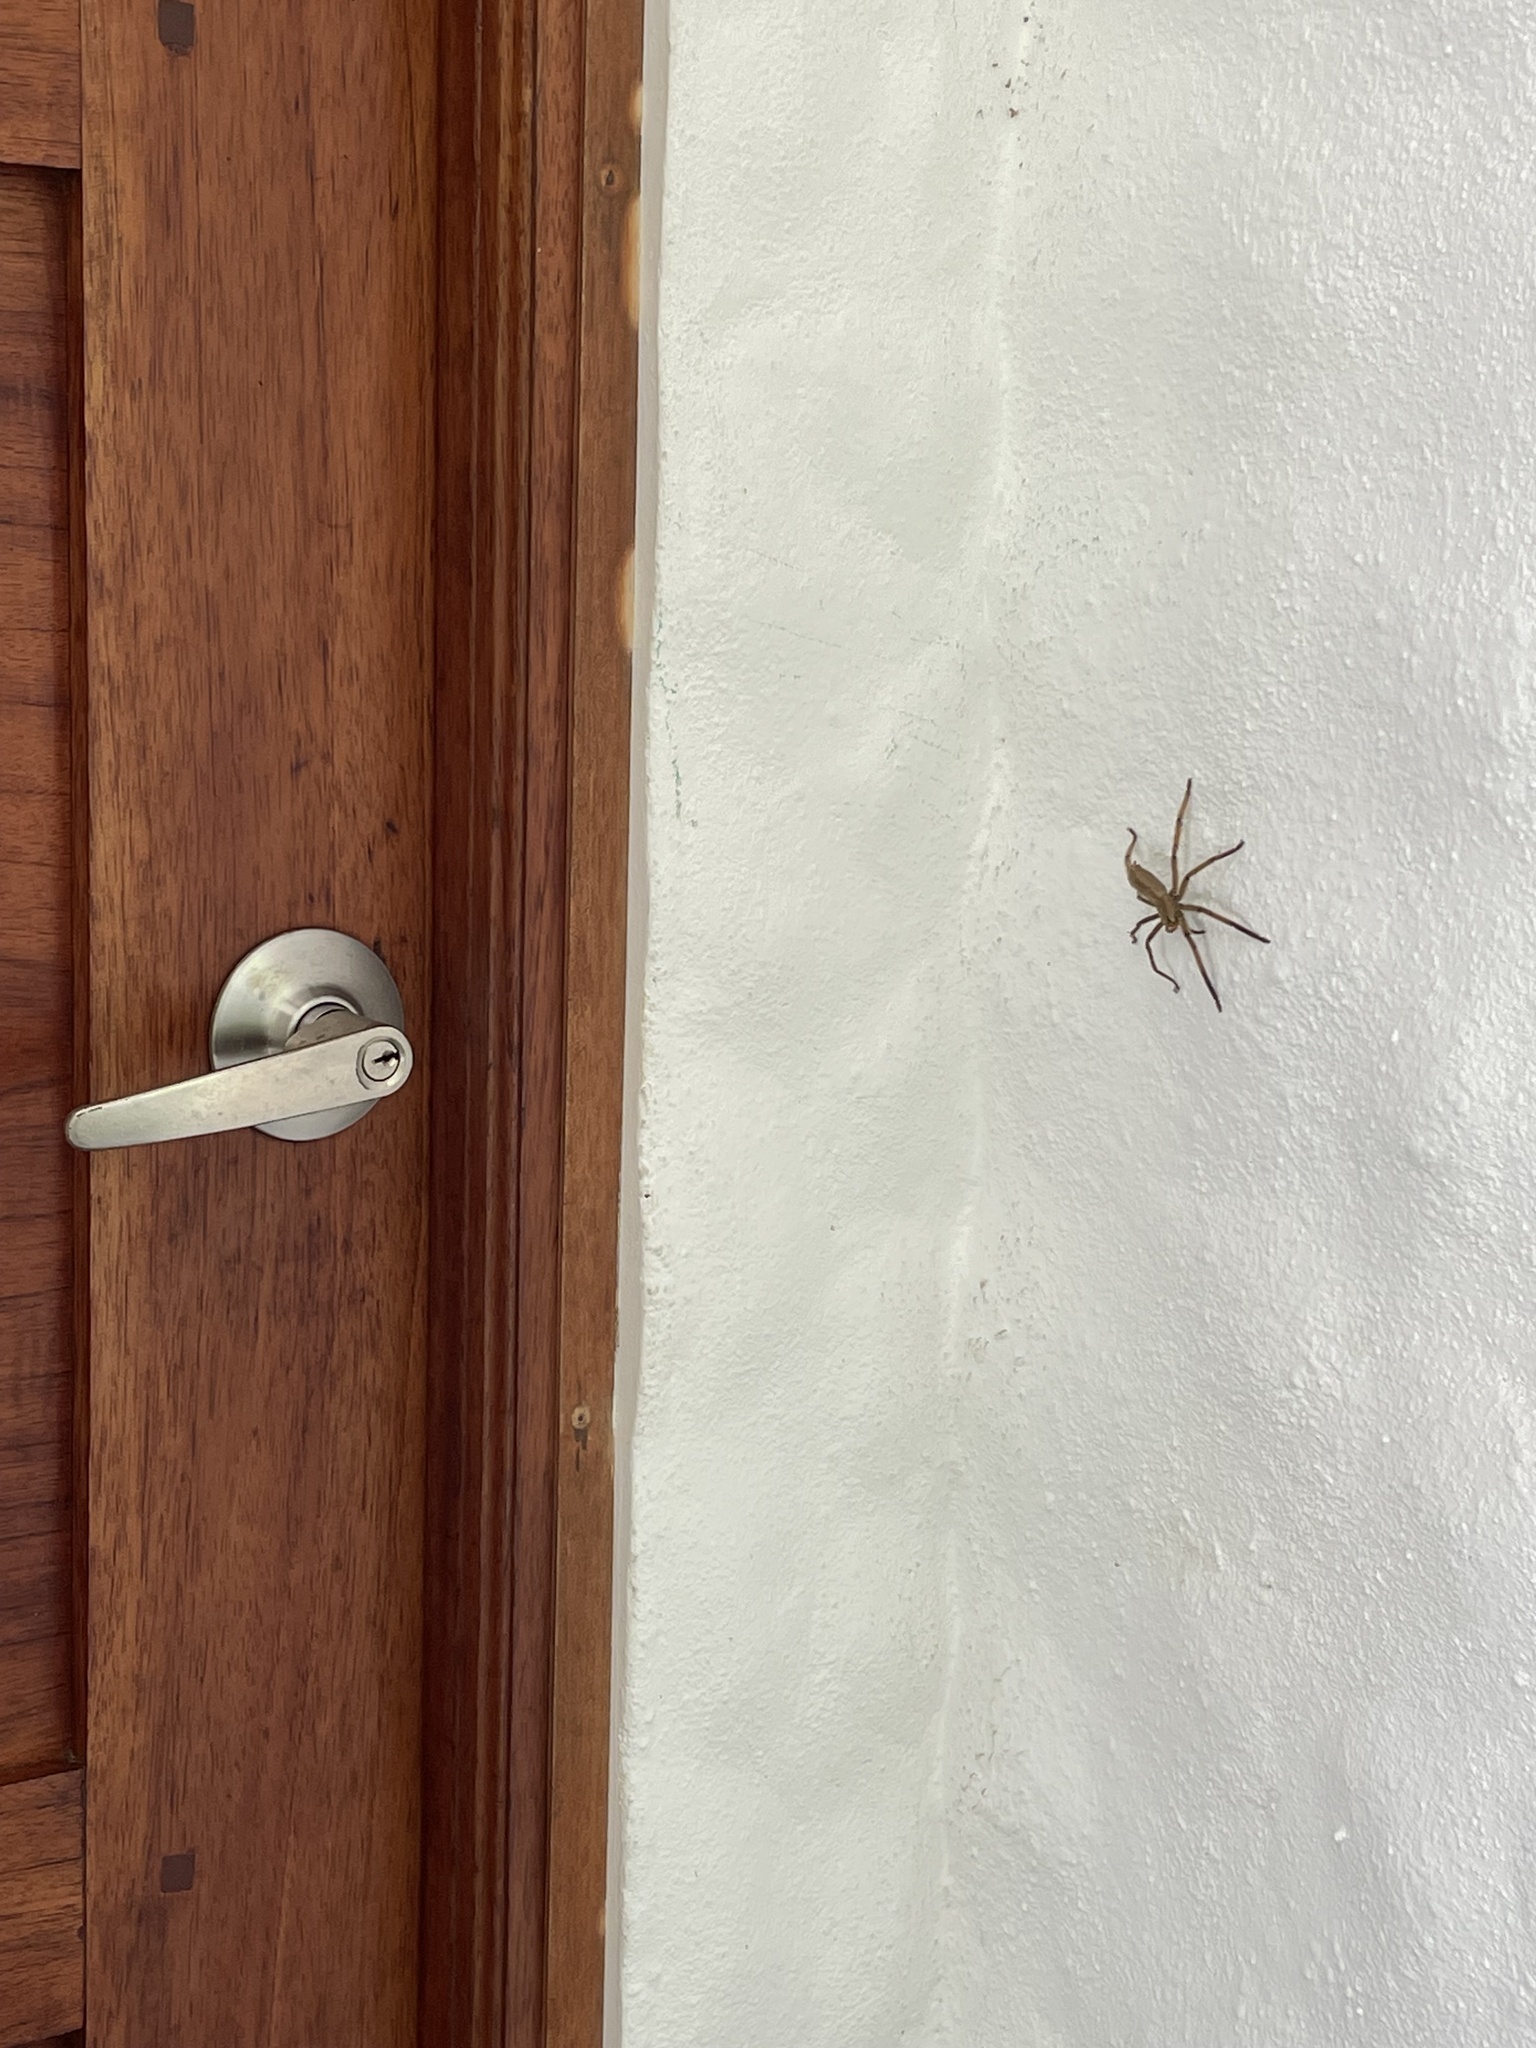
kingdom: Animalia
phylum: Arthropoda
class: Arachnida
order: Araneae
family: Trechaleidae
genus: Cupiennius
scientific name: Cupiennius getazi
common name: Wandering spiders
